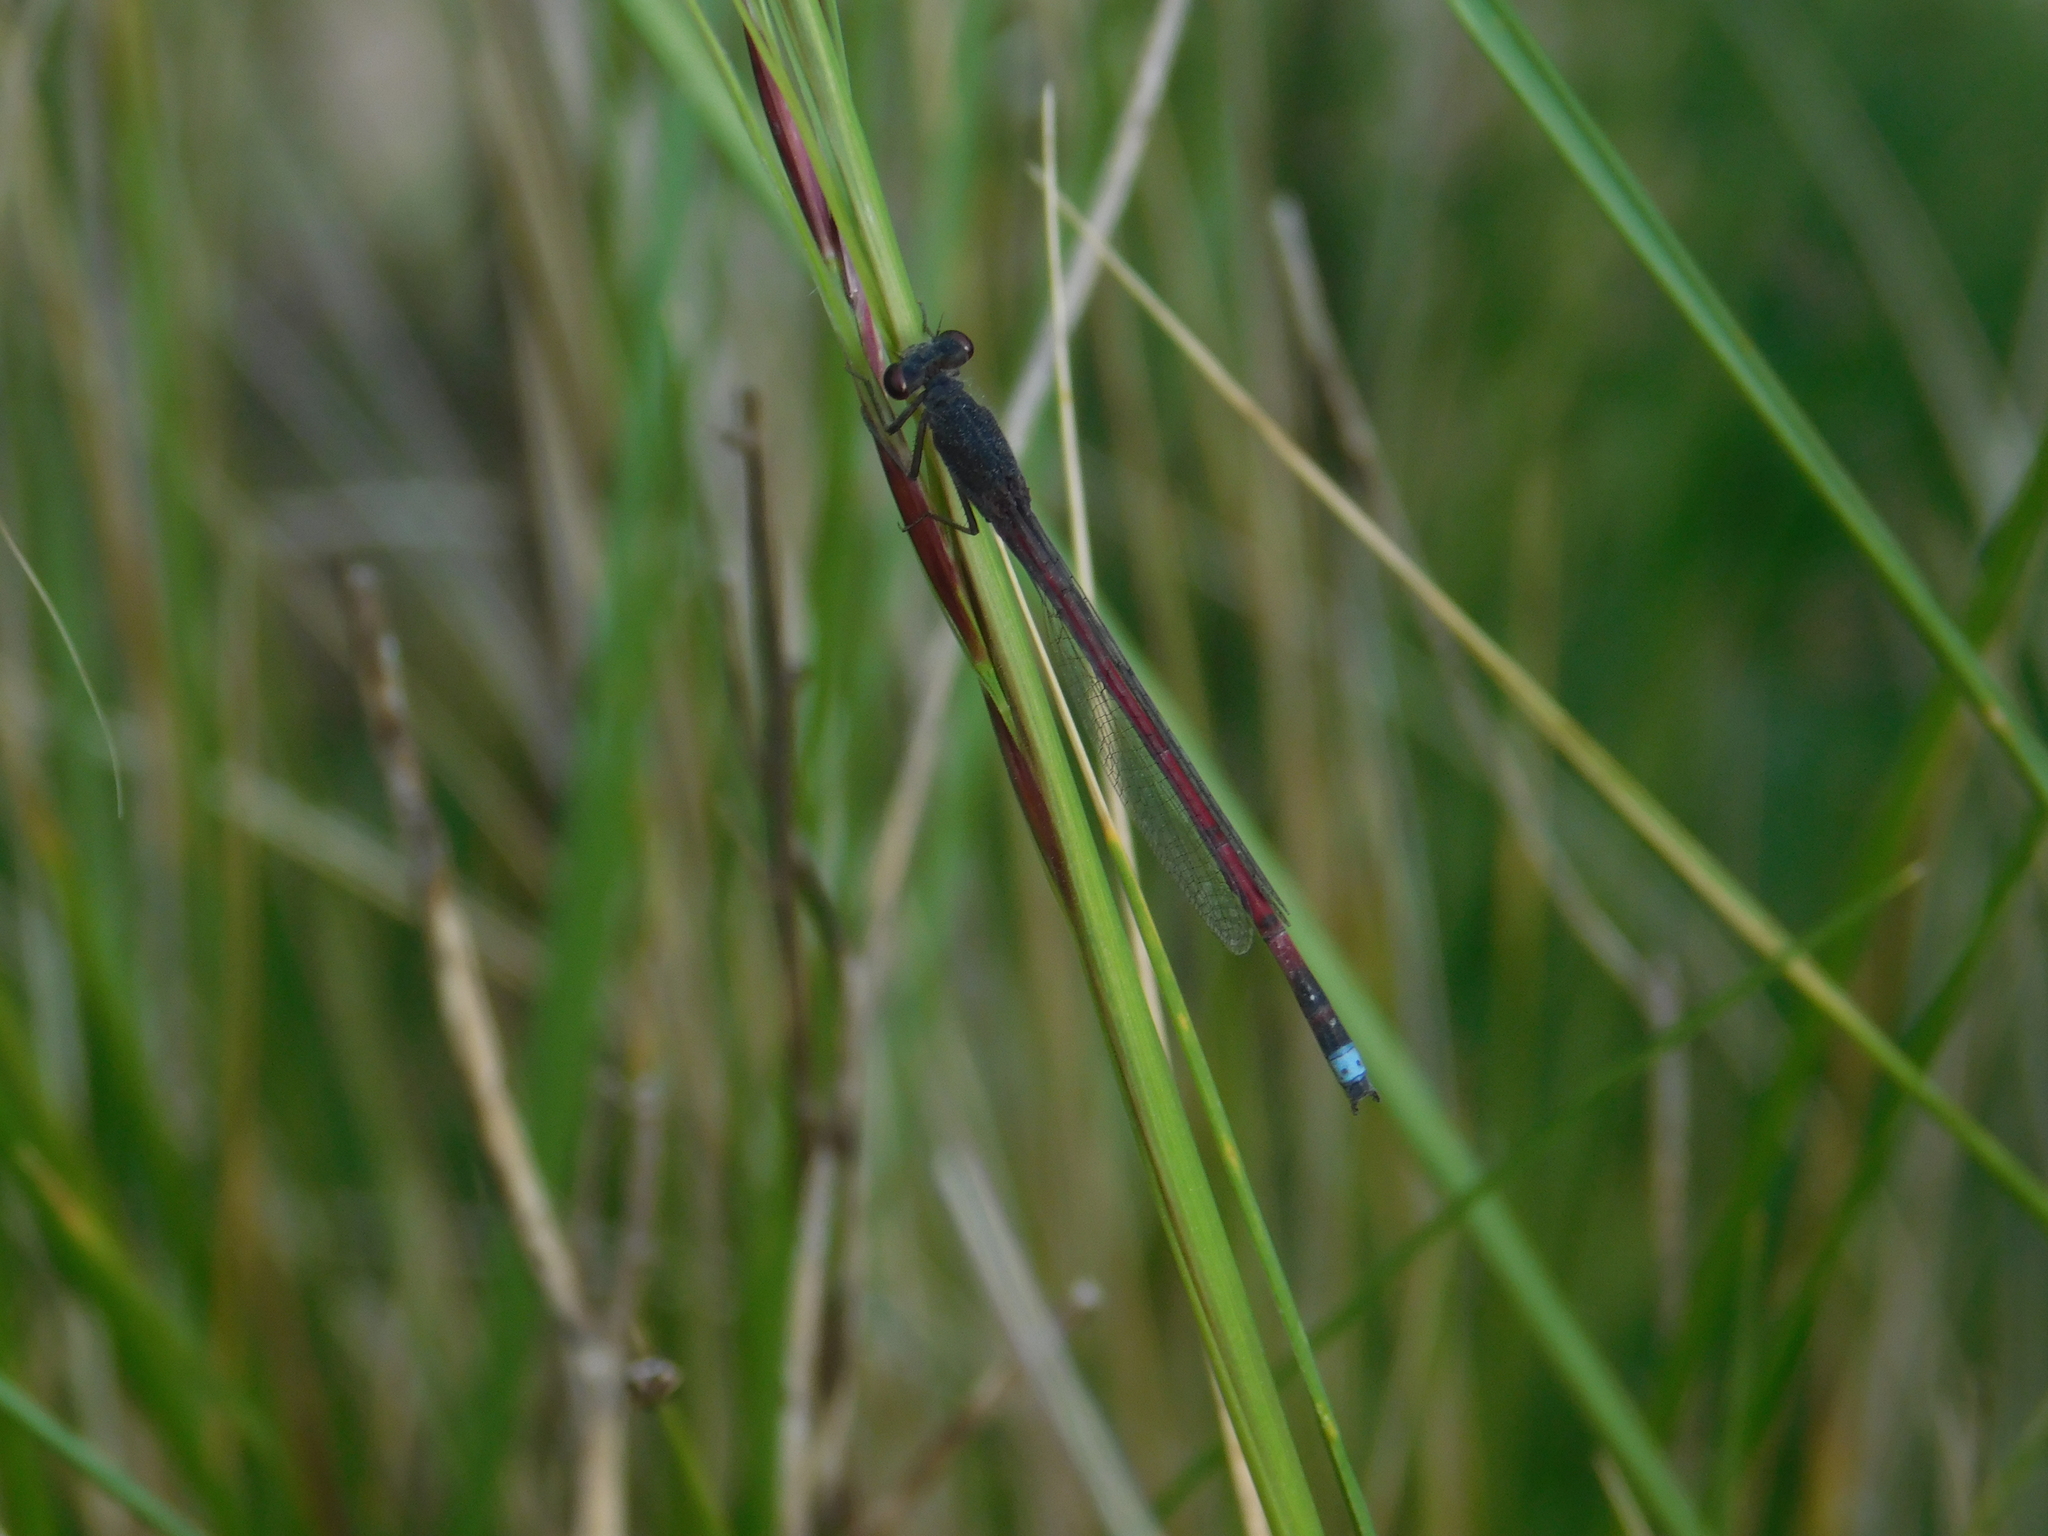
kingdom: Animalia
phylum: Arthropoda
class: Insecta
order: Odonata
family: Coenagrionidae
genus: Oxyagrion
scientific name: Oxyagrion rubidum
